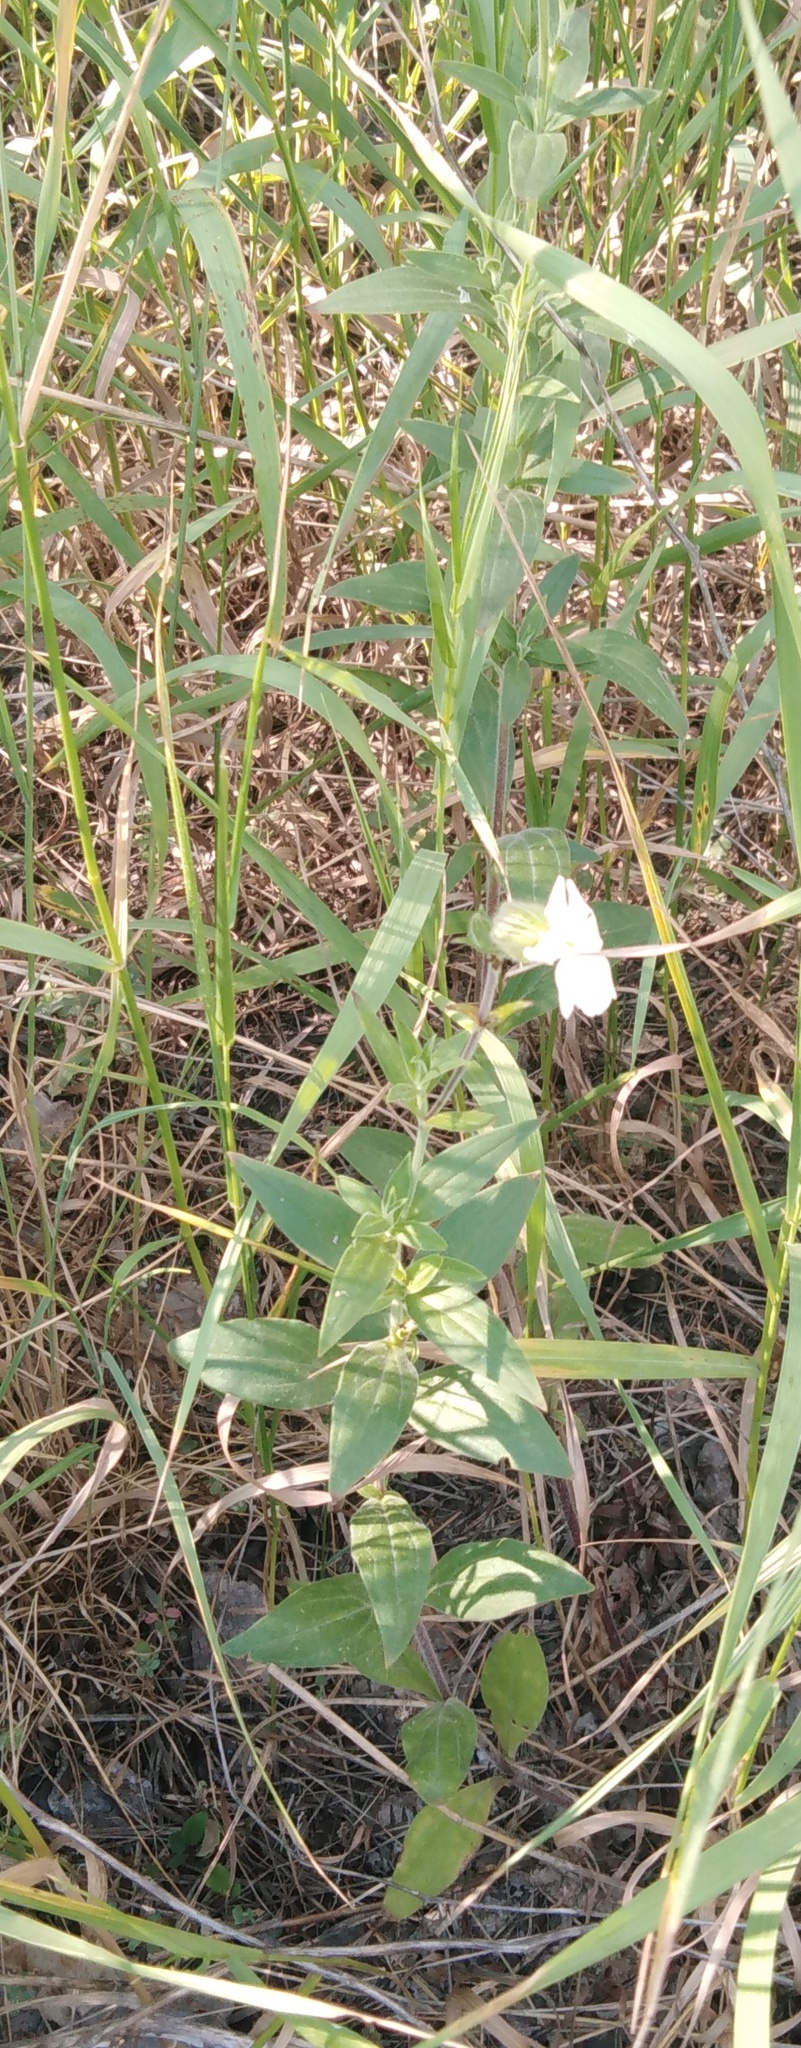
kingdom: Plantae
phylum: Tracheophyta
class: Magnoliopsida
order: Caryophyllales
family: Caryophyllaceae
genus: Silene
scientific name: Silene latifolia
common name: White campion
